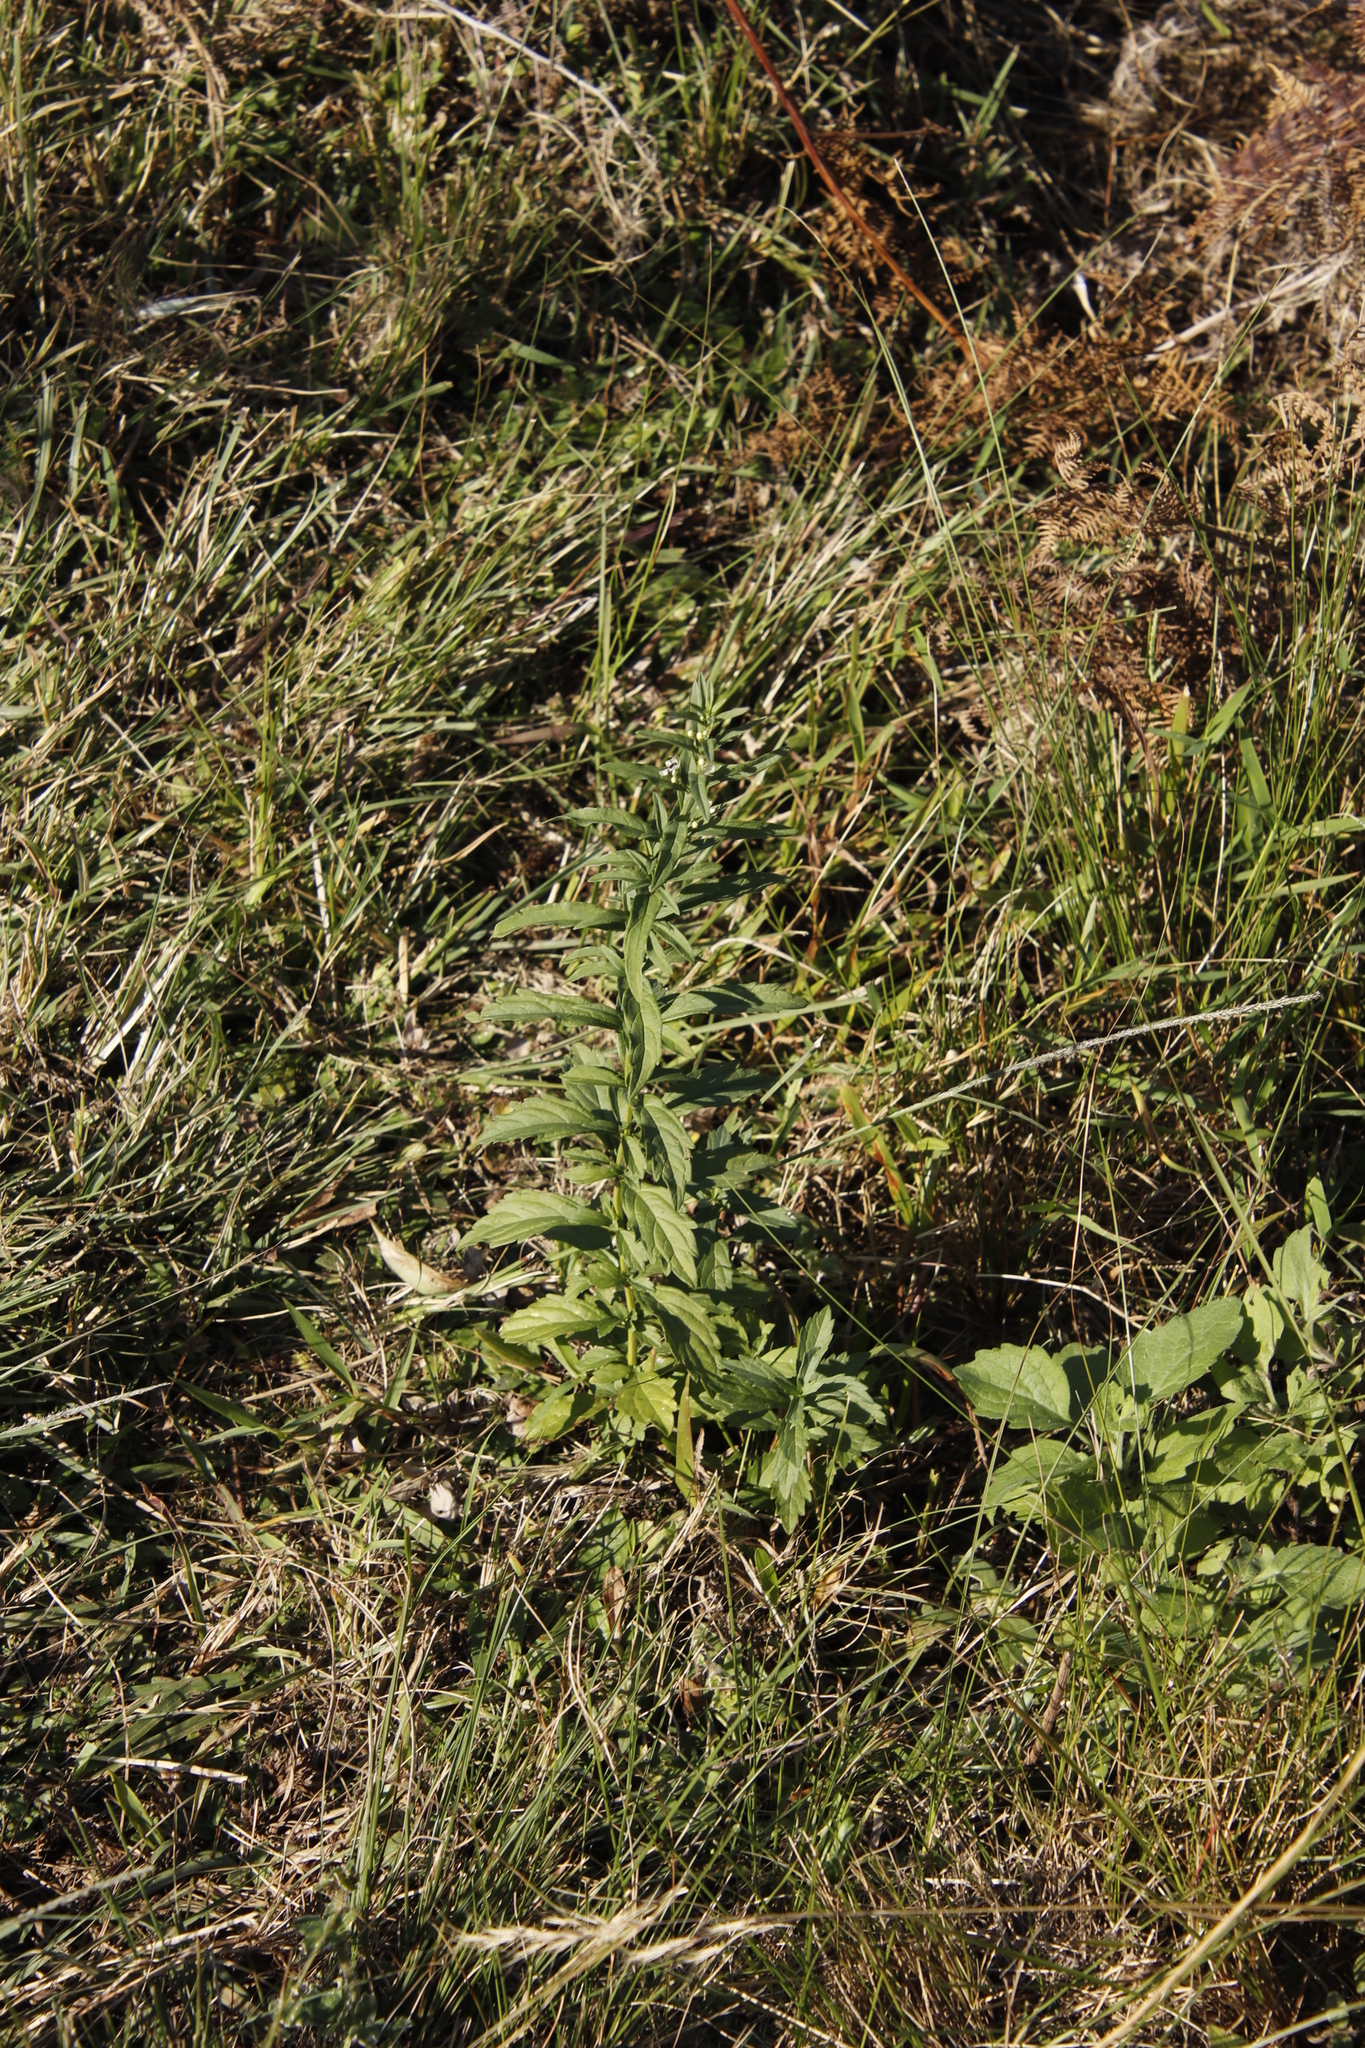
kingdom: Plantae
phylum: Tracheophyta
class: Magnoliopsida
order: Lamiales
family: Lamiaceae
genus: Teucrium
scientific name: Teucrium kraussii
